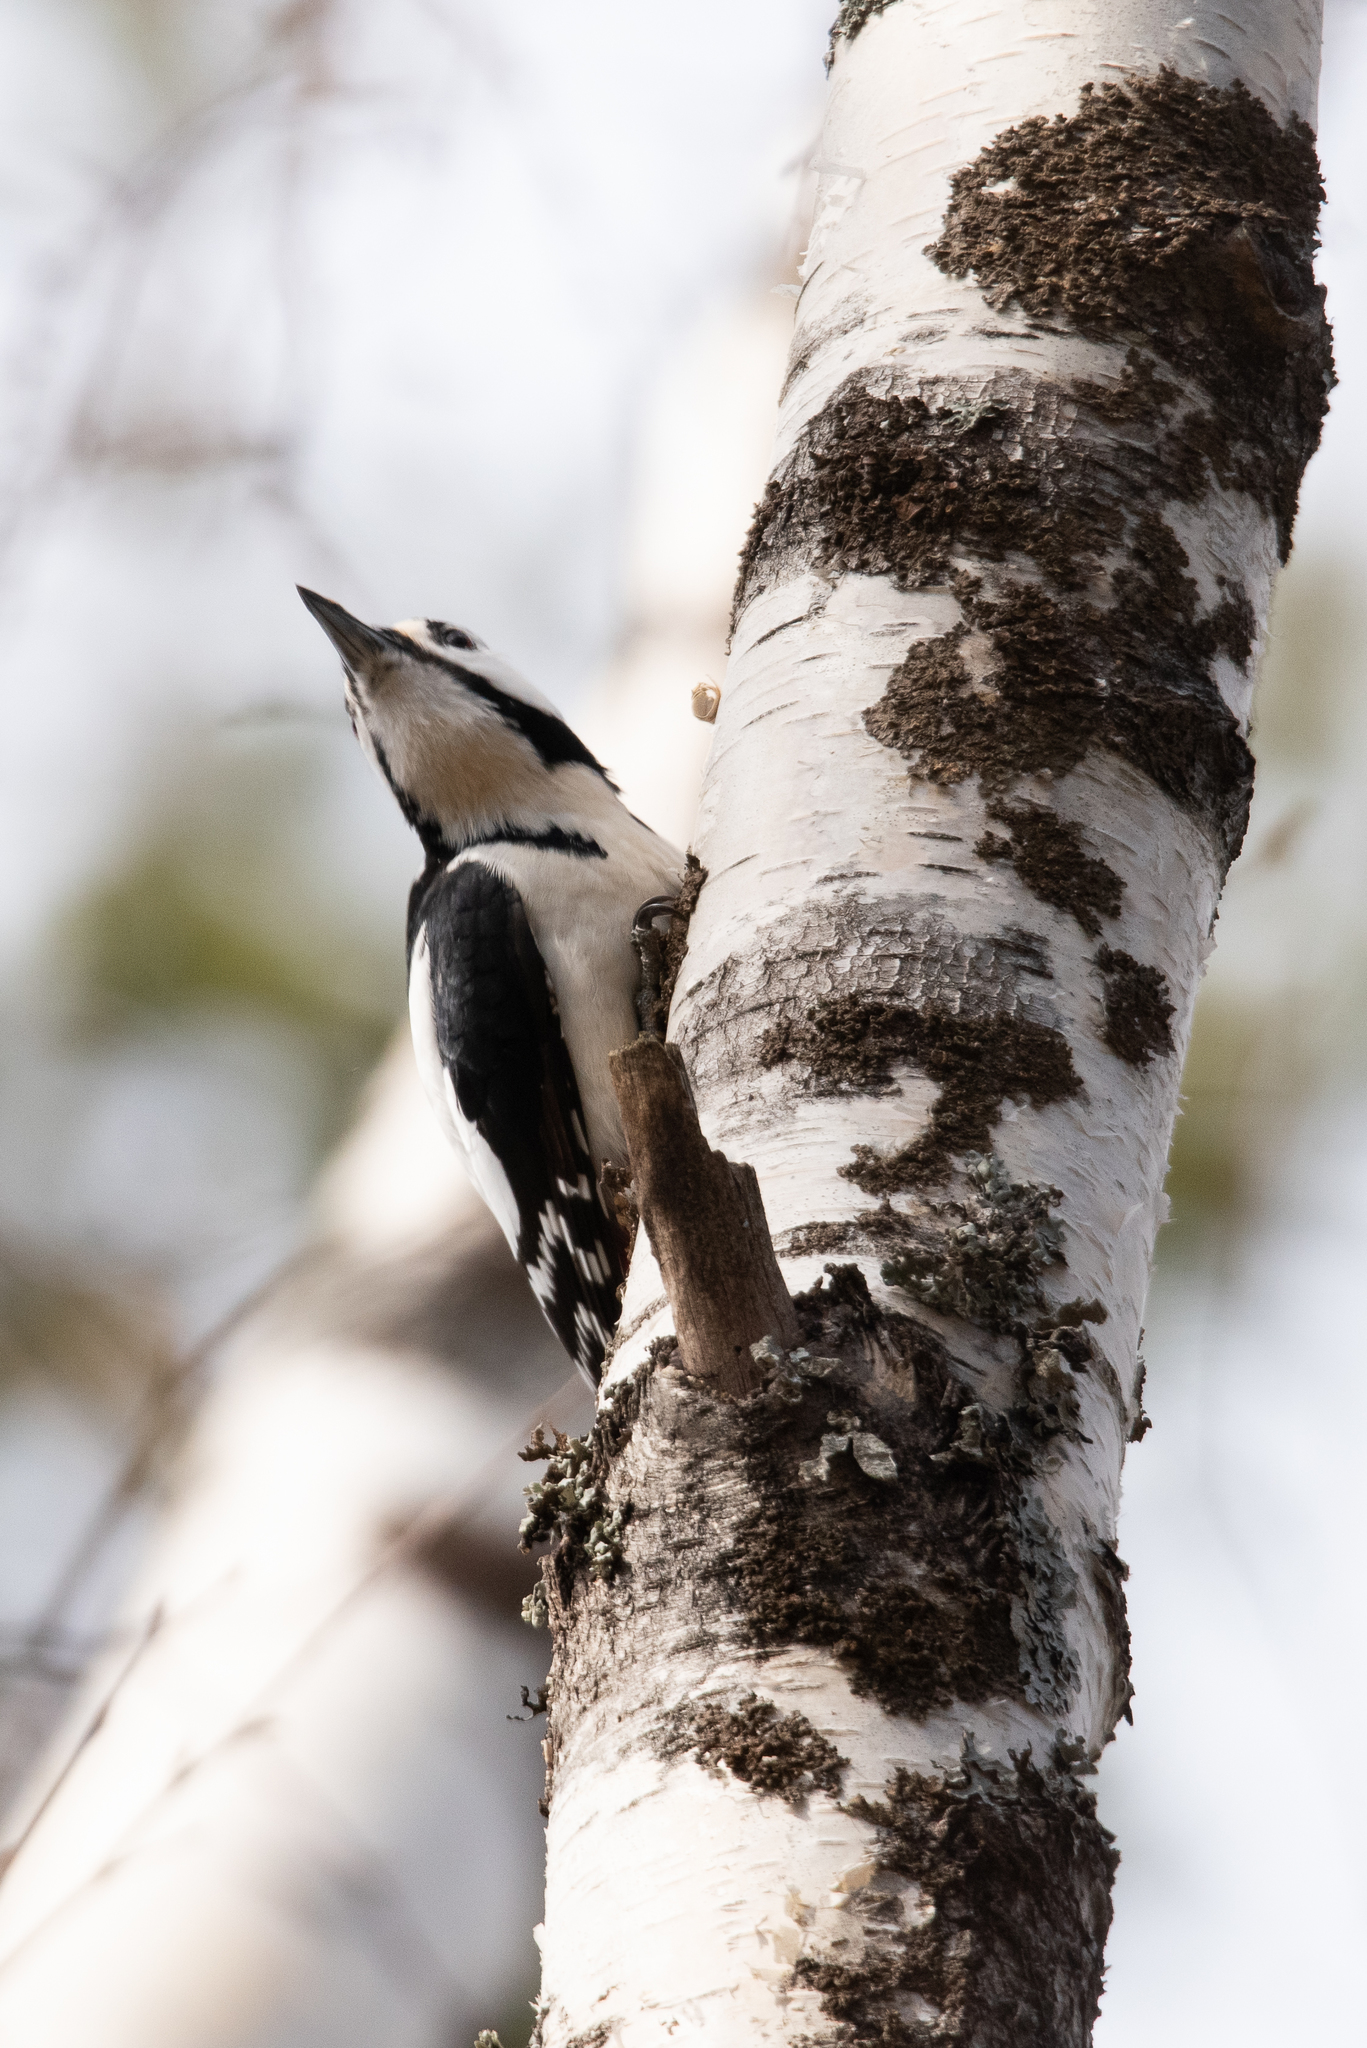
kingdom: Animalia
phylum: Chordata
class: Aves
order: Piciformes
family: Picidae
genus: Dendrocopos
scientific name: Dendrocopos major
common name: Great spotted woodpecker
